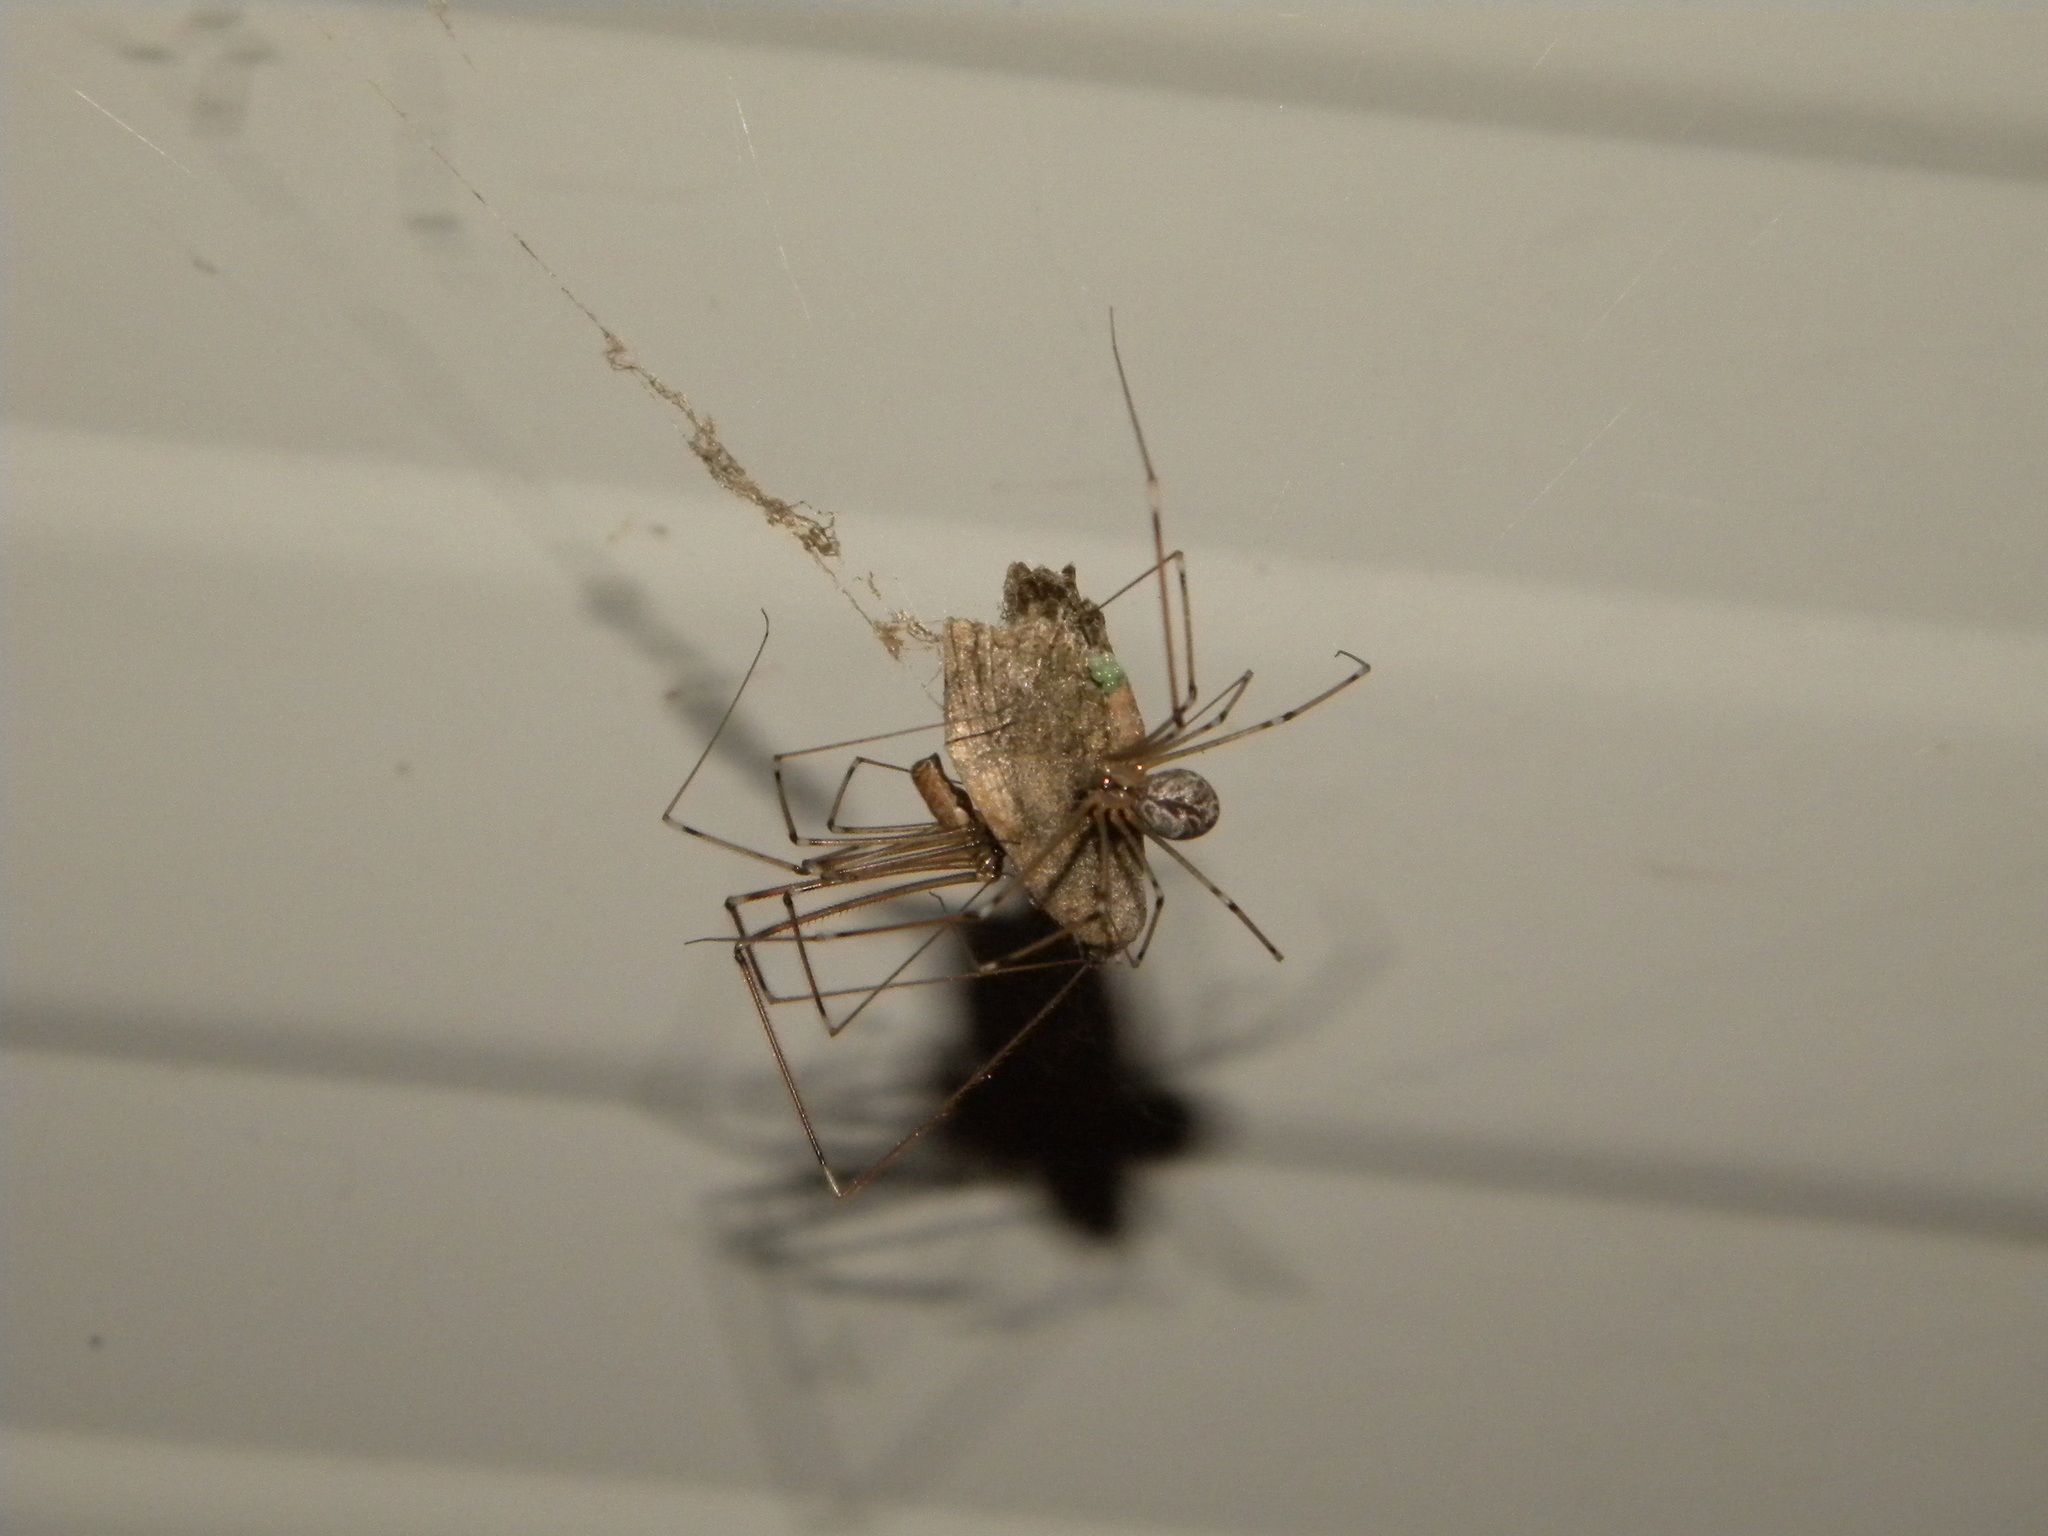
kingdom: Animalia
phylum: Arthropoda
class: Arachnida
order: Araneae
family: Pholcidae
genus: Holocnemus
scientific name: Holocnemus pluchei
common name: Marbled cellar spider
